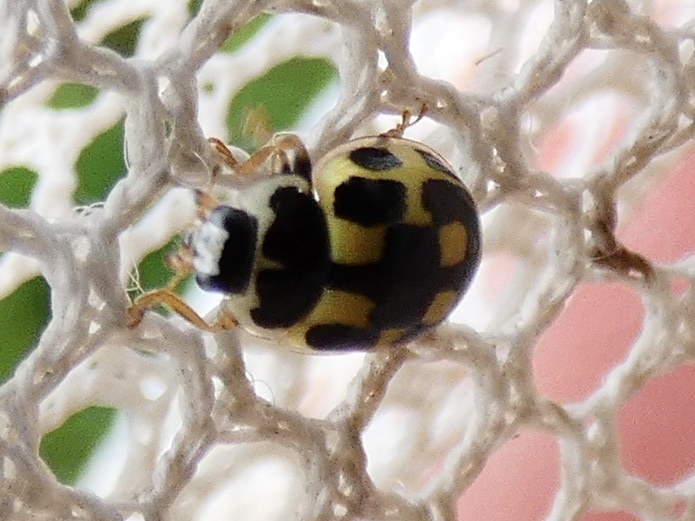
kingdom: Animalia
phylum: Arthropoda
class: Insecta
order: Coleoptera
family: Coccinellidae
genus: Propylaea
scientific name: Propylaea quatuordecimpunctata
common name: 14-spotted ladybird beetle
